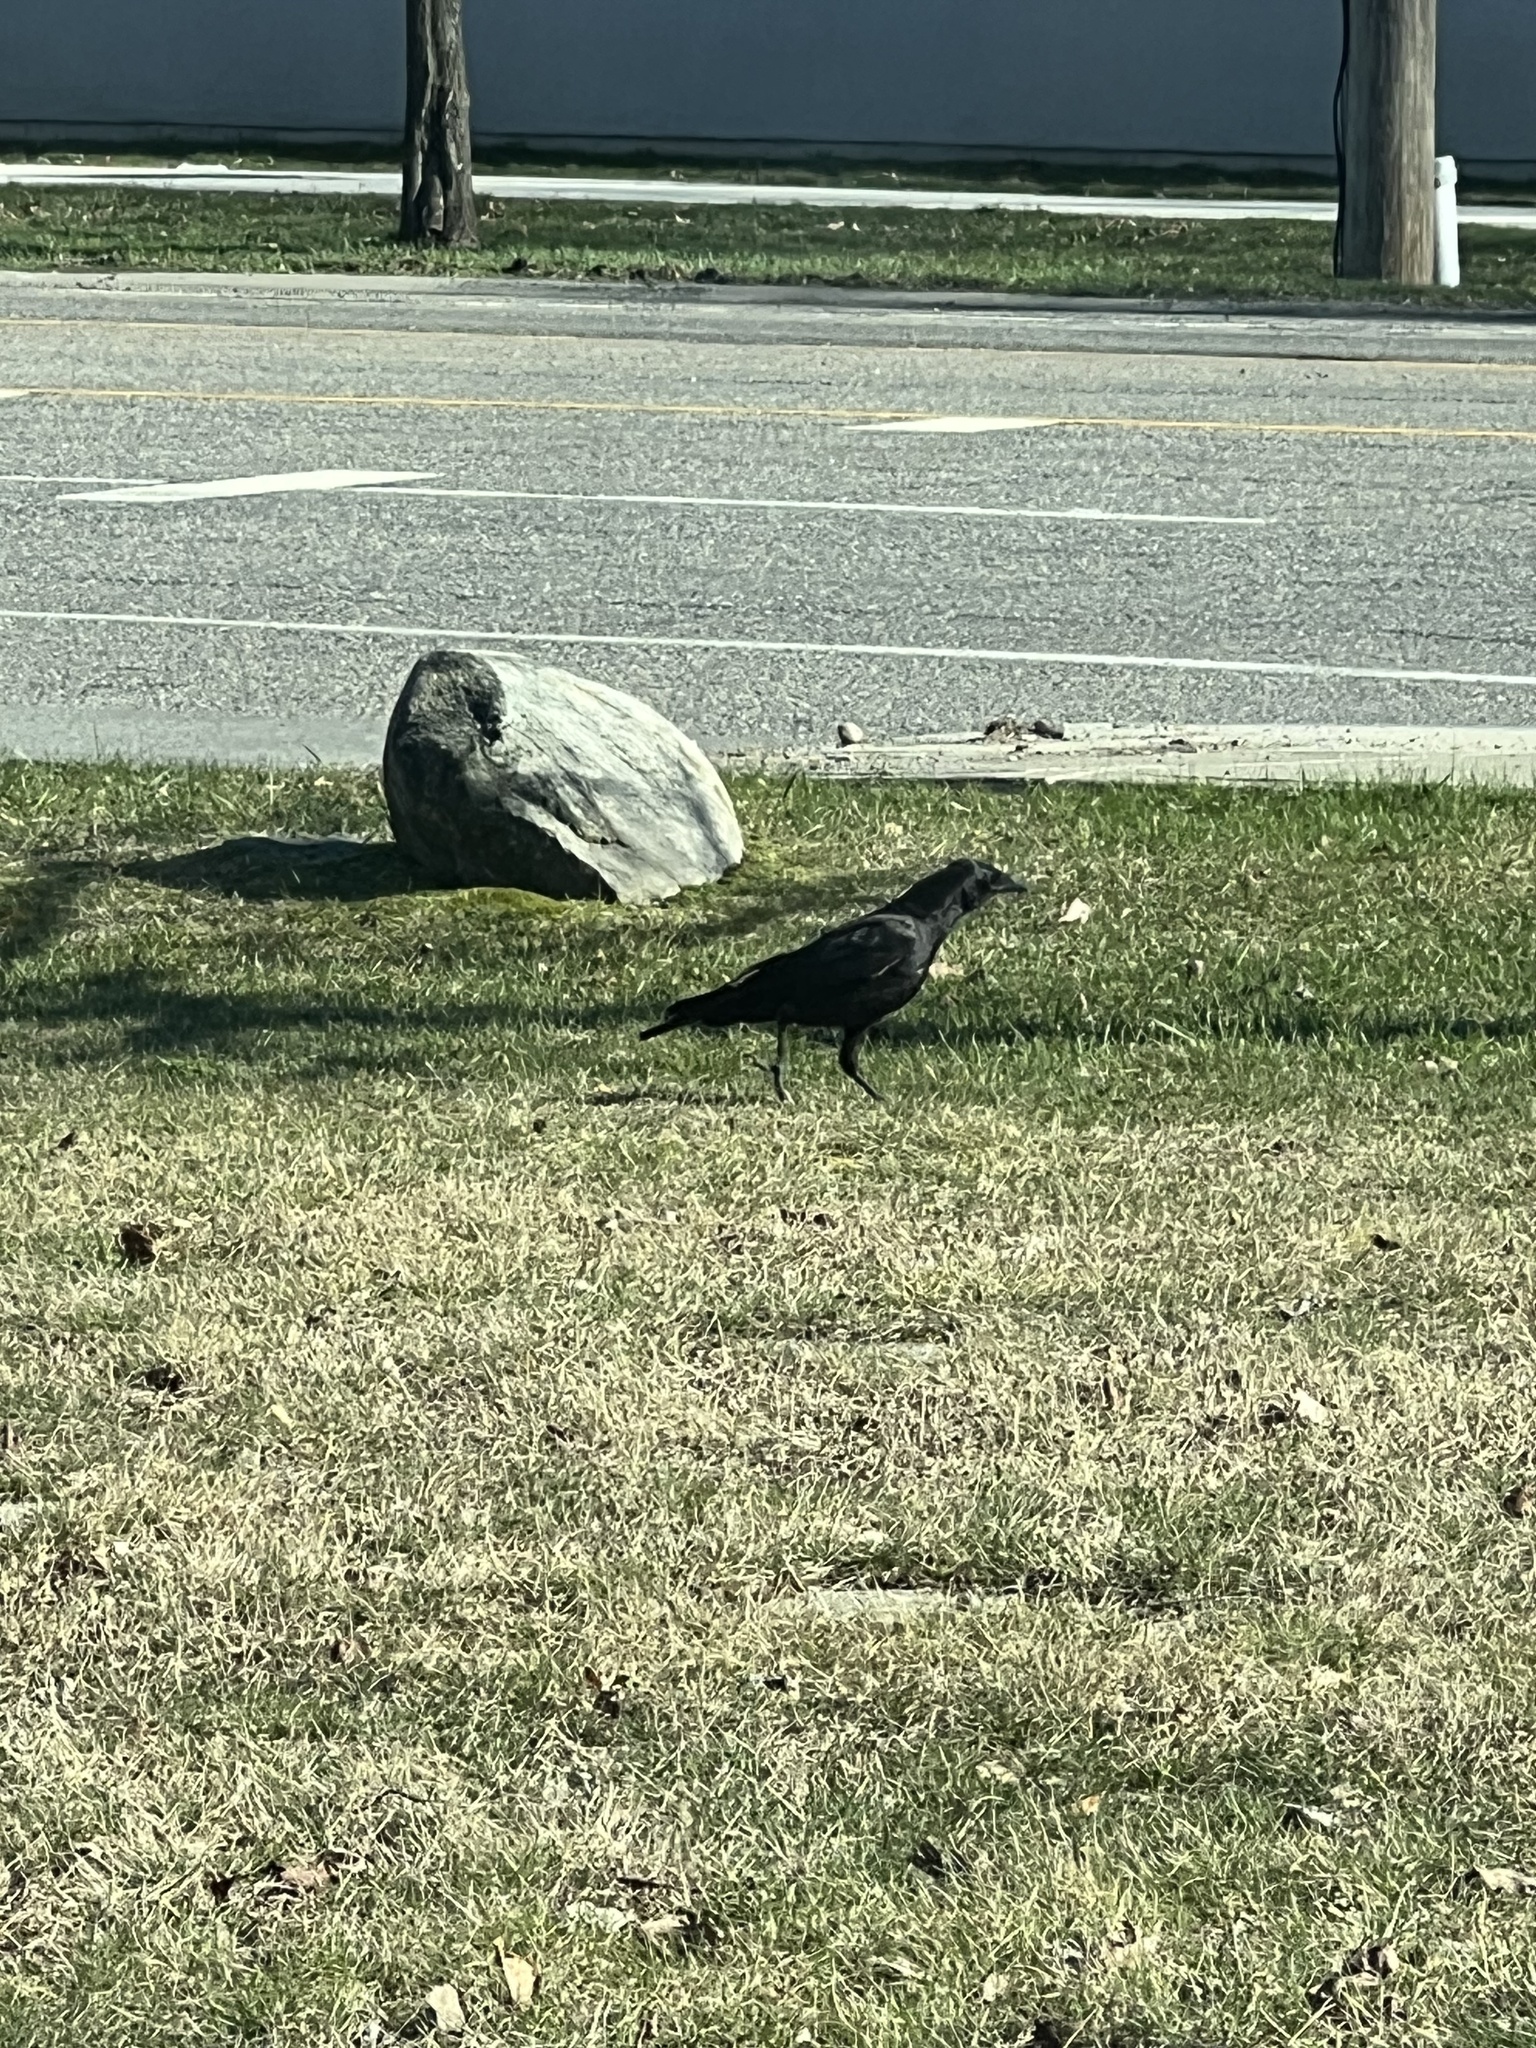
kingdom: Animalia
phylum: Chordata
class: Aves
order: Passeriformes
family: Corvidae
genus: Corvus
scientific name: Corvus brachyrhynchos
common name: American crow
